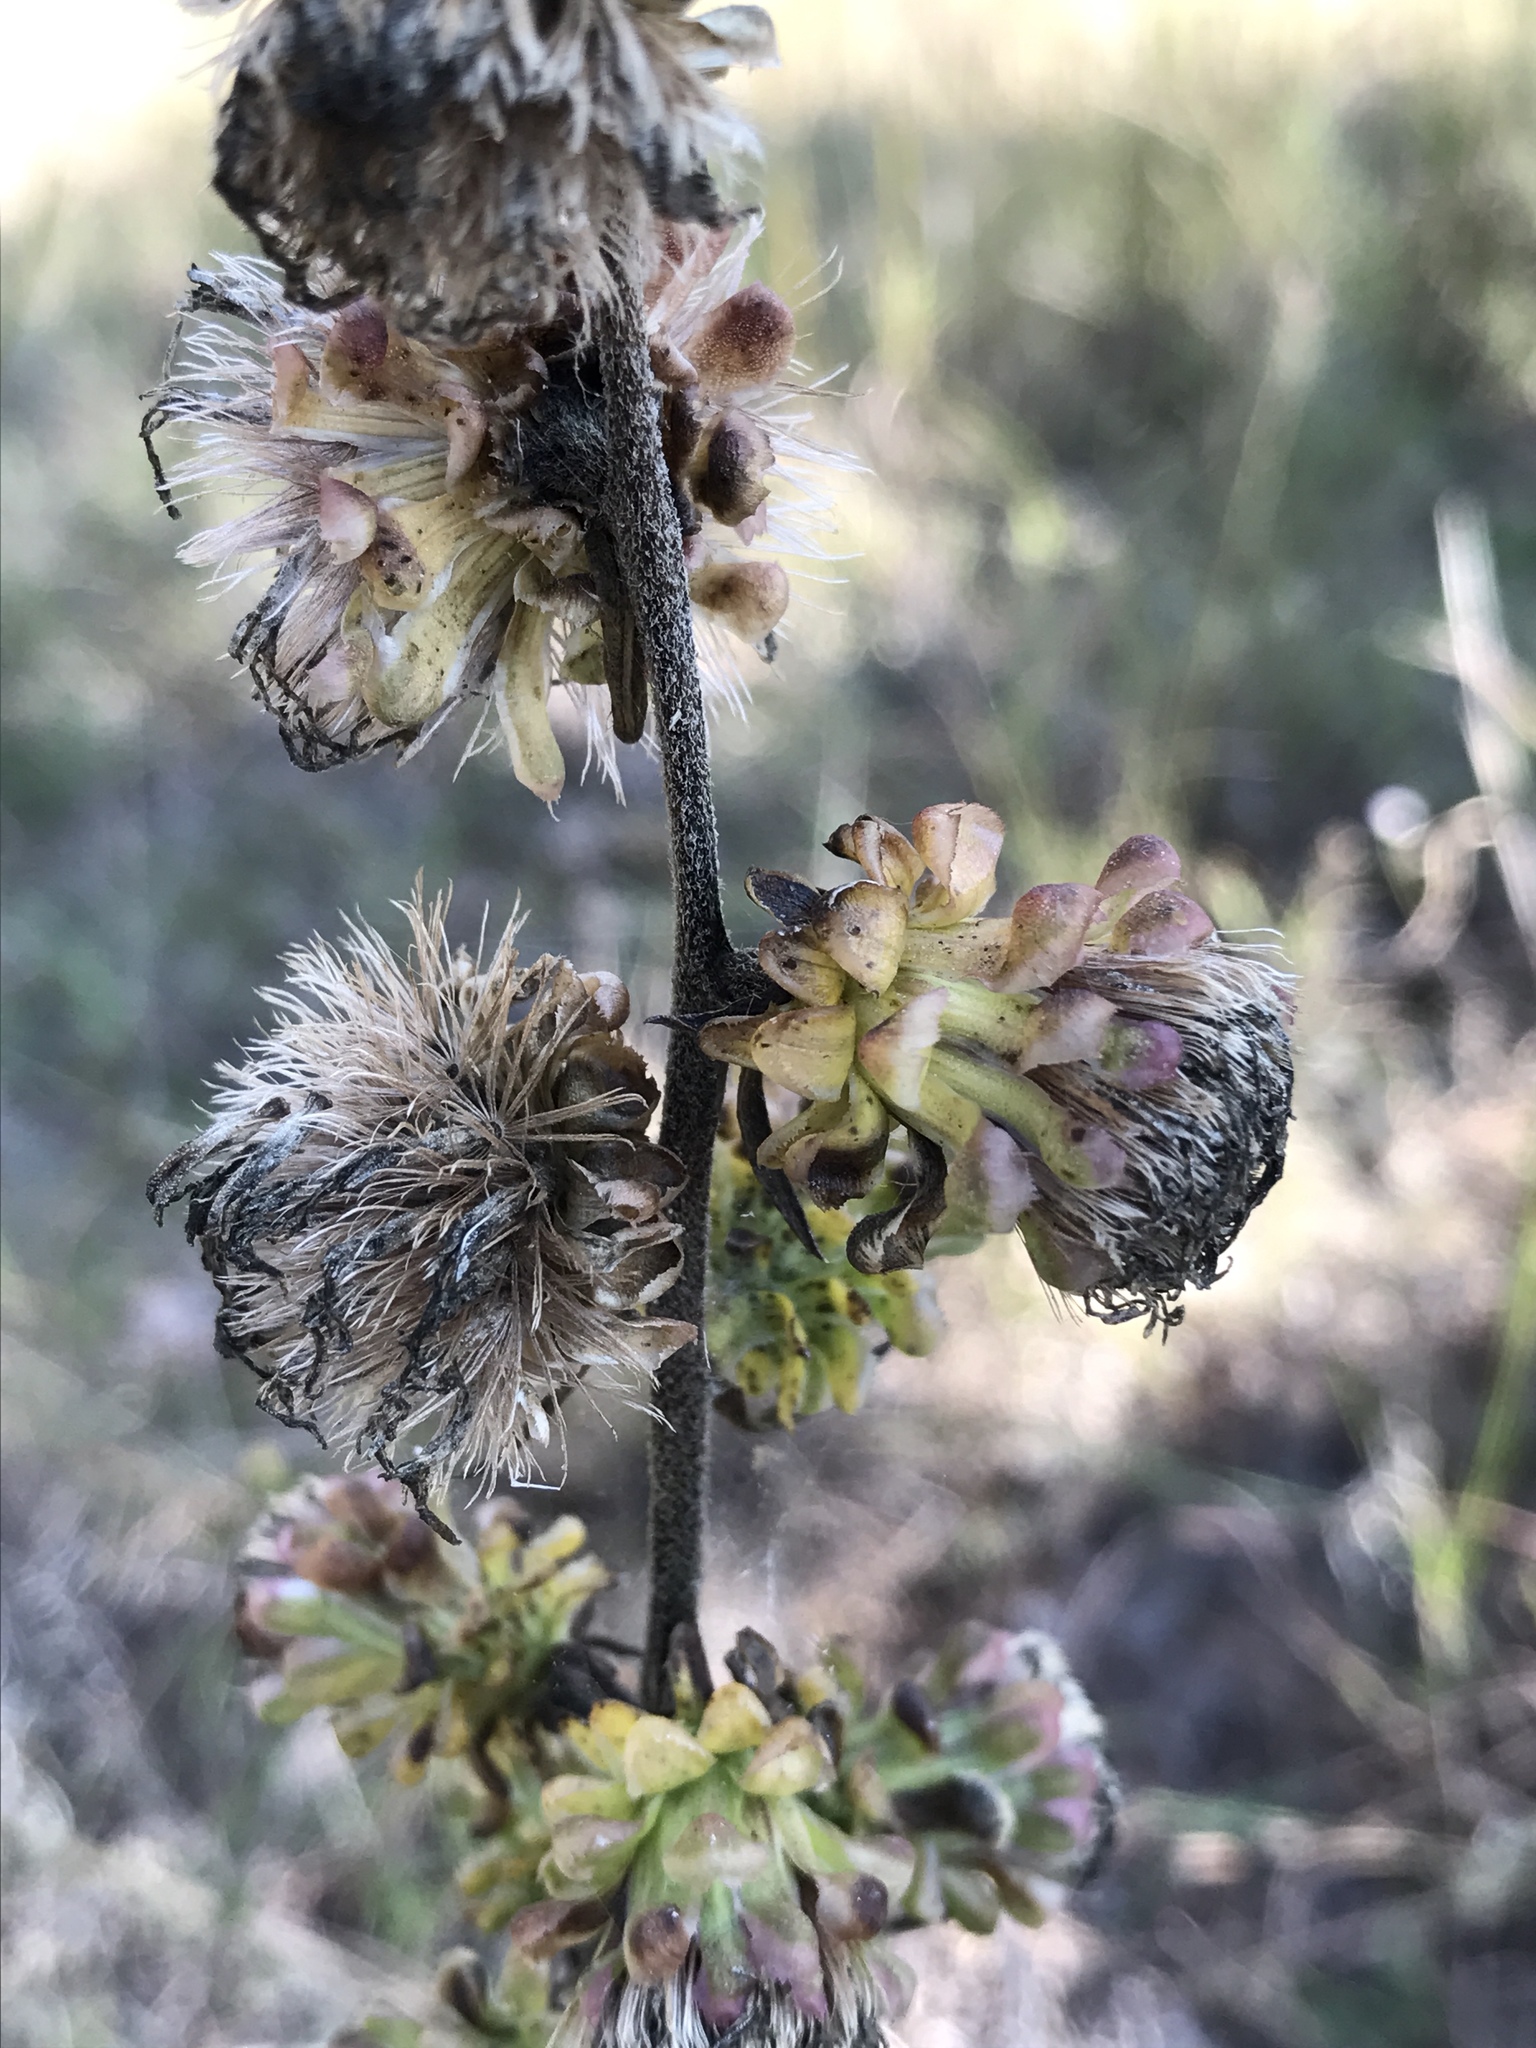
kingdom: Plantae
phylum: Tracheophyta
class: Magnoliopsida
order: Asterales
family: Asteraceae
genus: Liatris
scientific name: Liatris aspera
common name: Lacerate blazing-star
